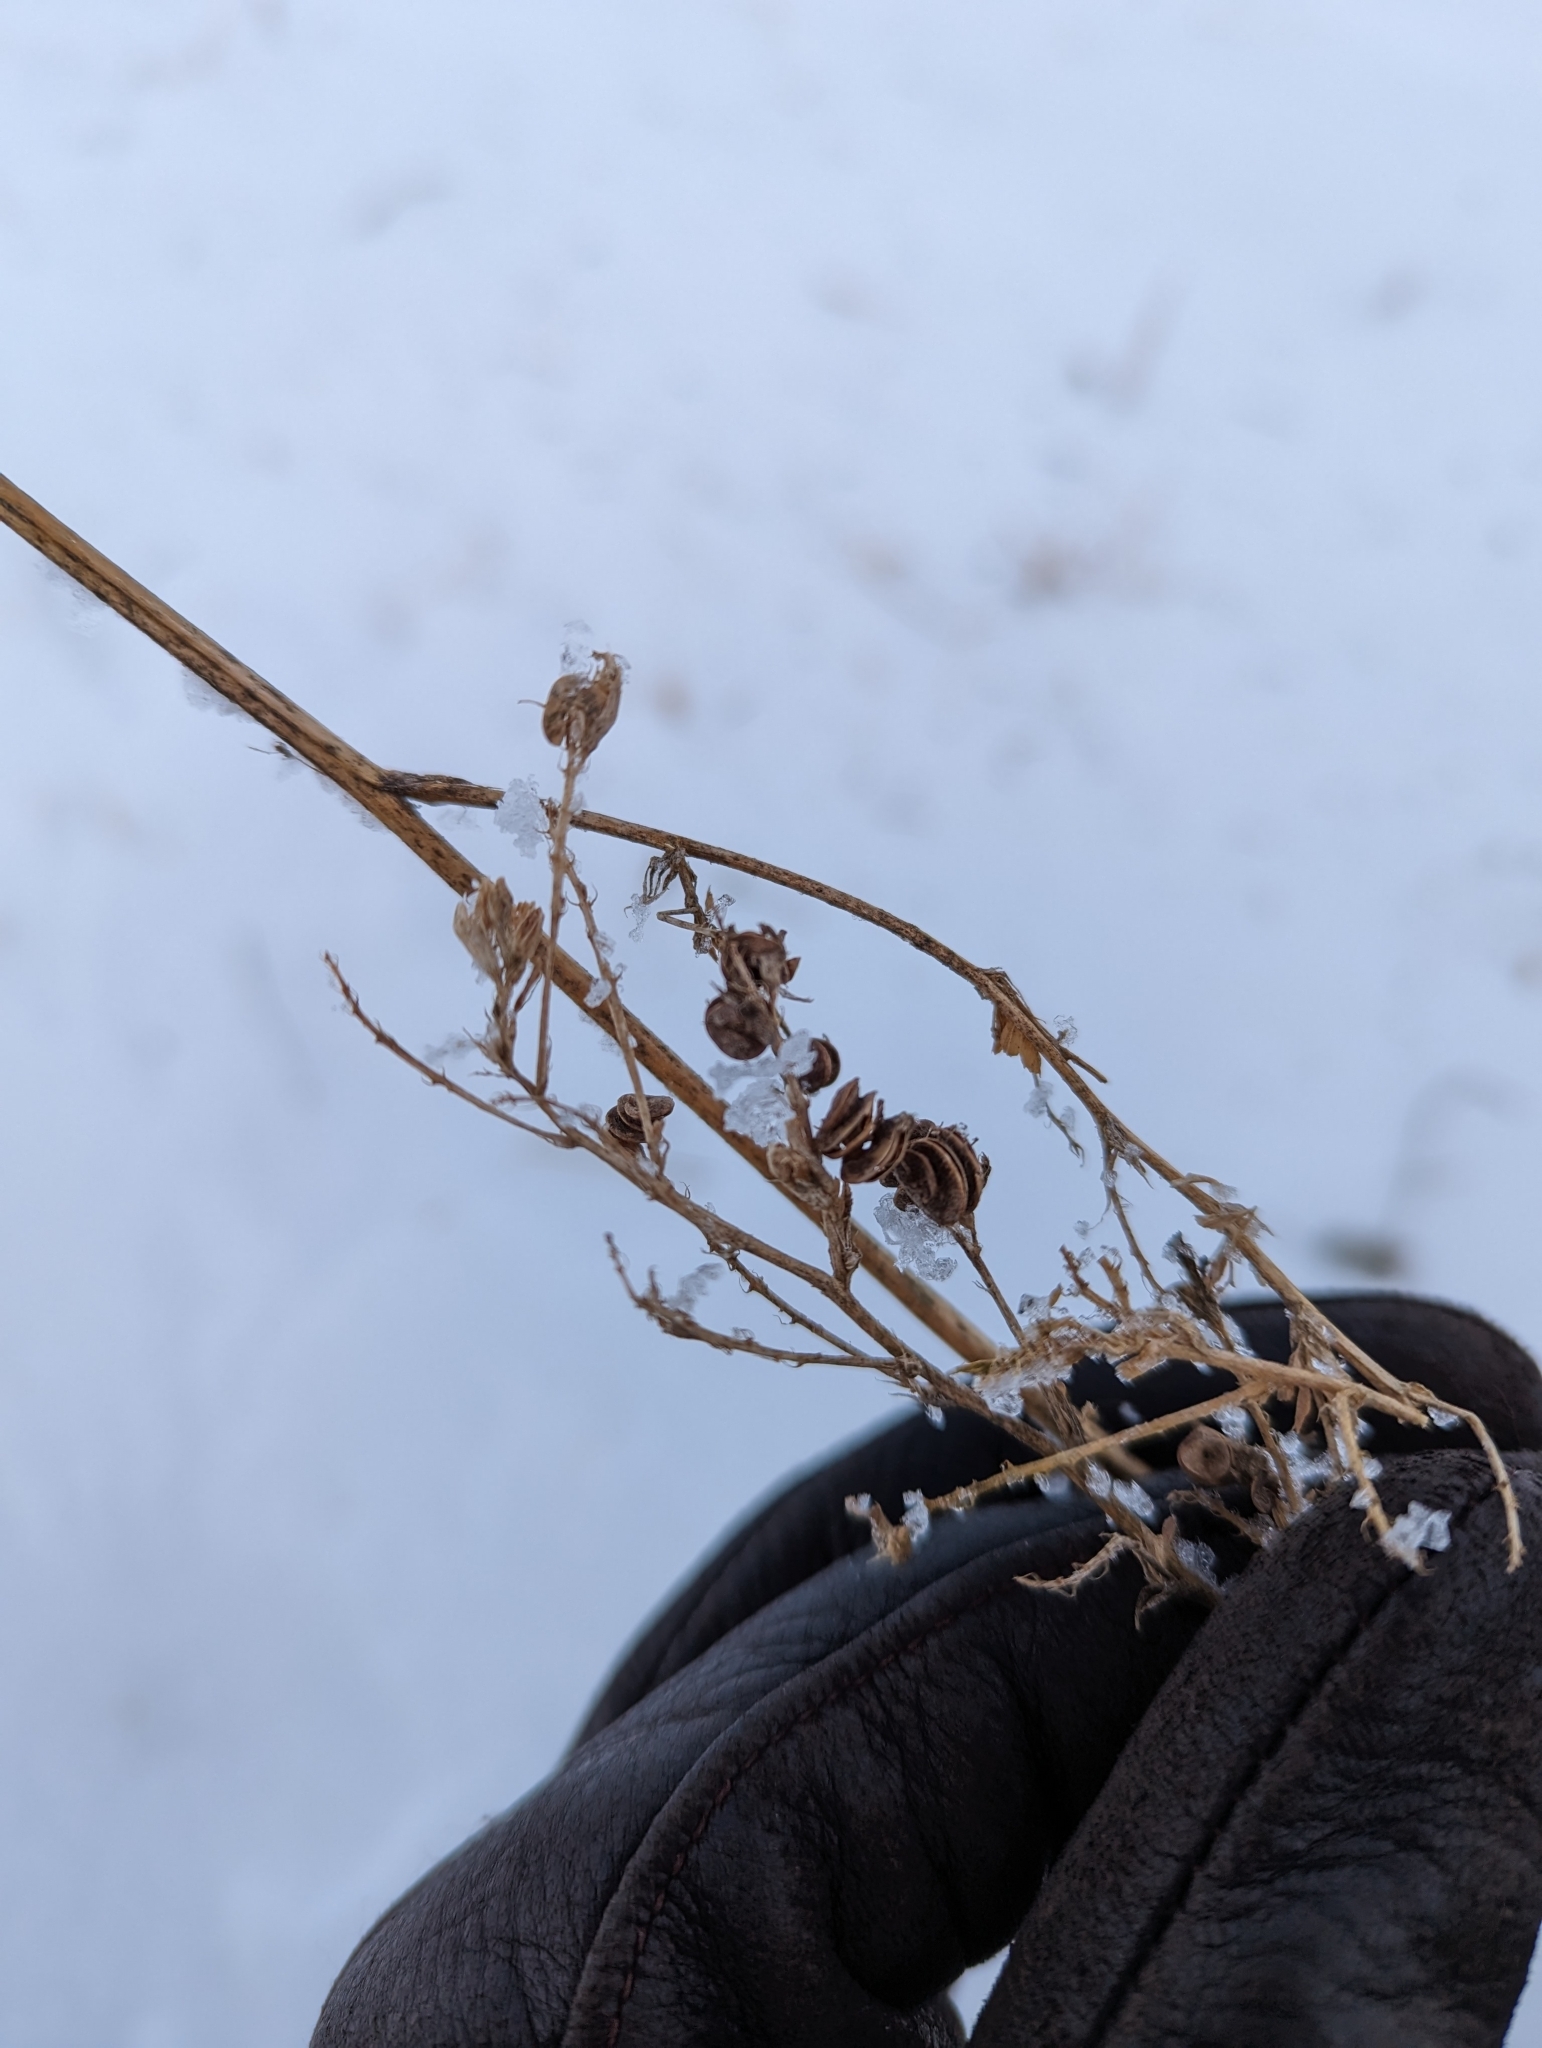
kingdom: Plantae
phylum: Tracheophyta
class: Magnoliopsida
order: Fabales
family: Fabaceae
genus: Medicago
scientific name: Medicago sativa
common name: Alfalfa
